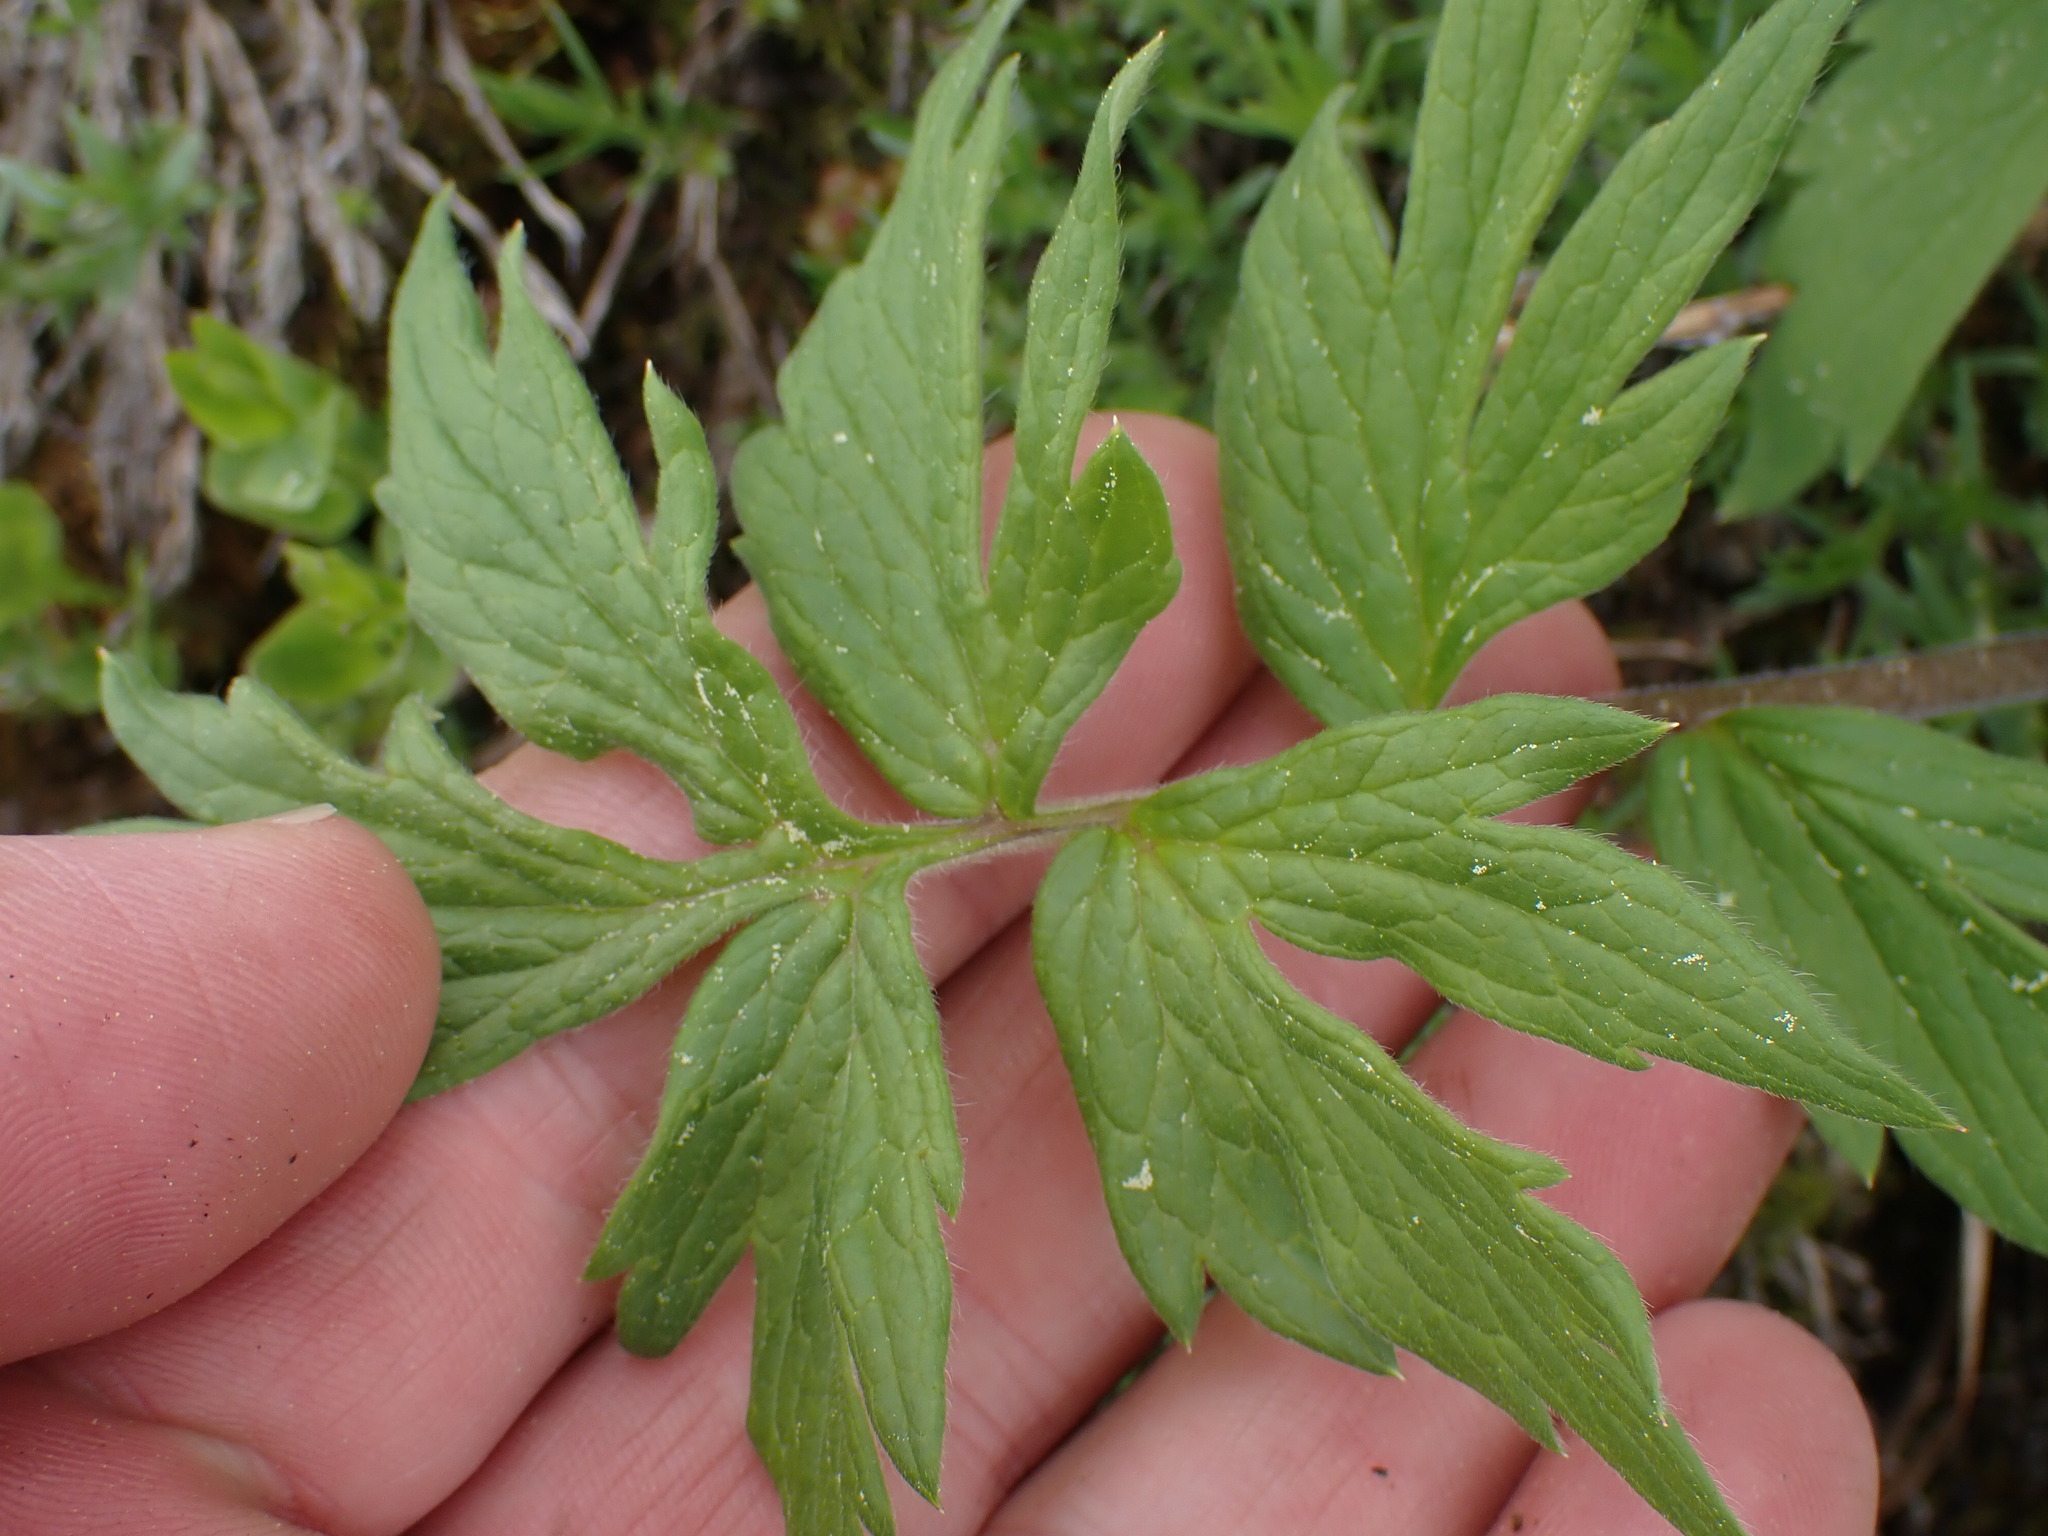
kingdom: Plantae
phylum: Tracheophyta
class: Magnoliopsida
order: Boraginales
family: Hydrophyllaceae
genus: Hydrophyllum
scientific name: Hydrophyllum fendleri
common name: Fendler's waterleaf
